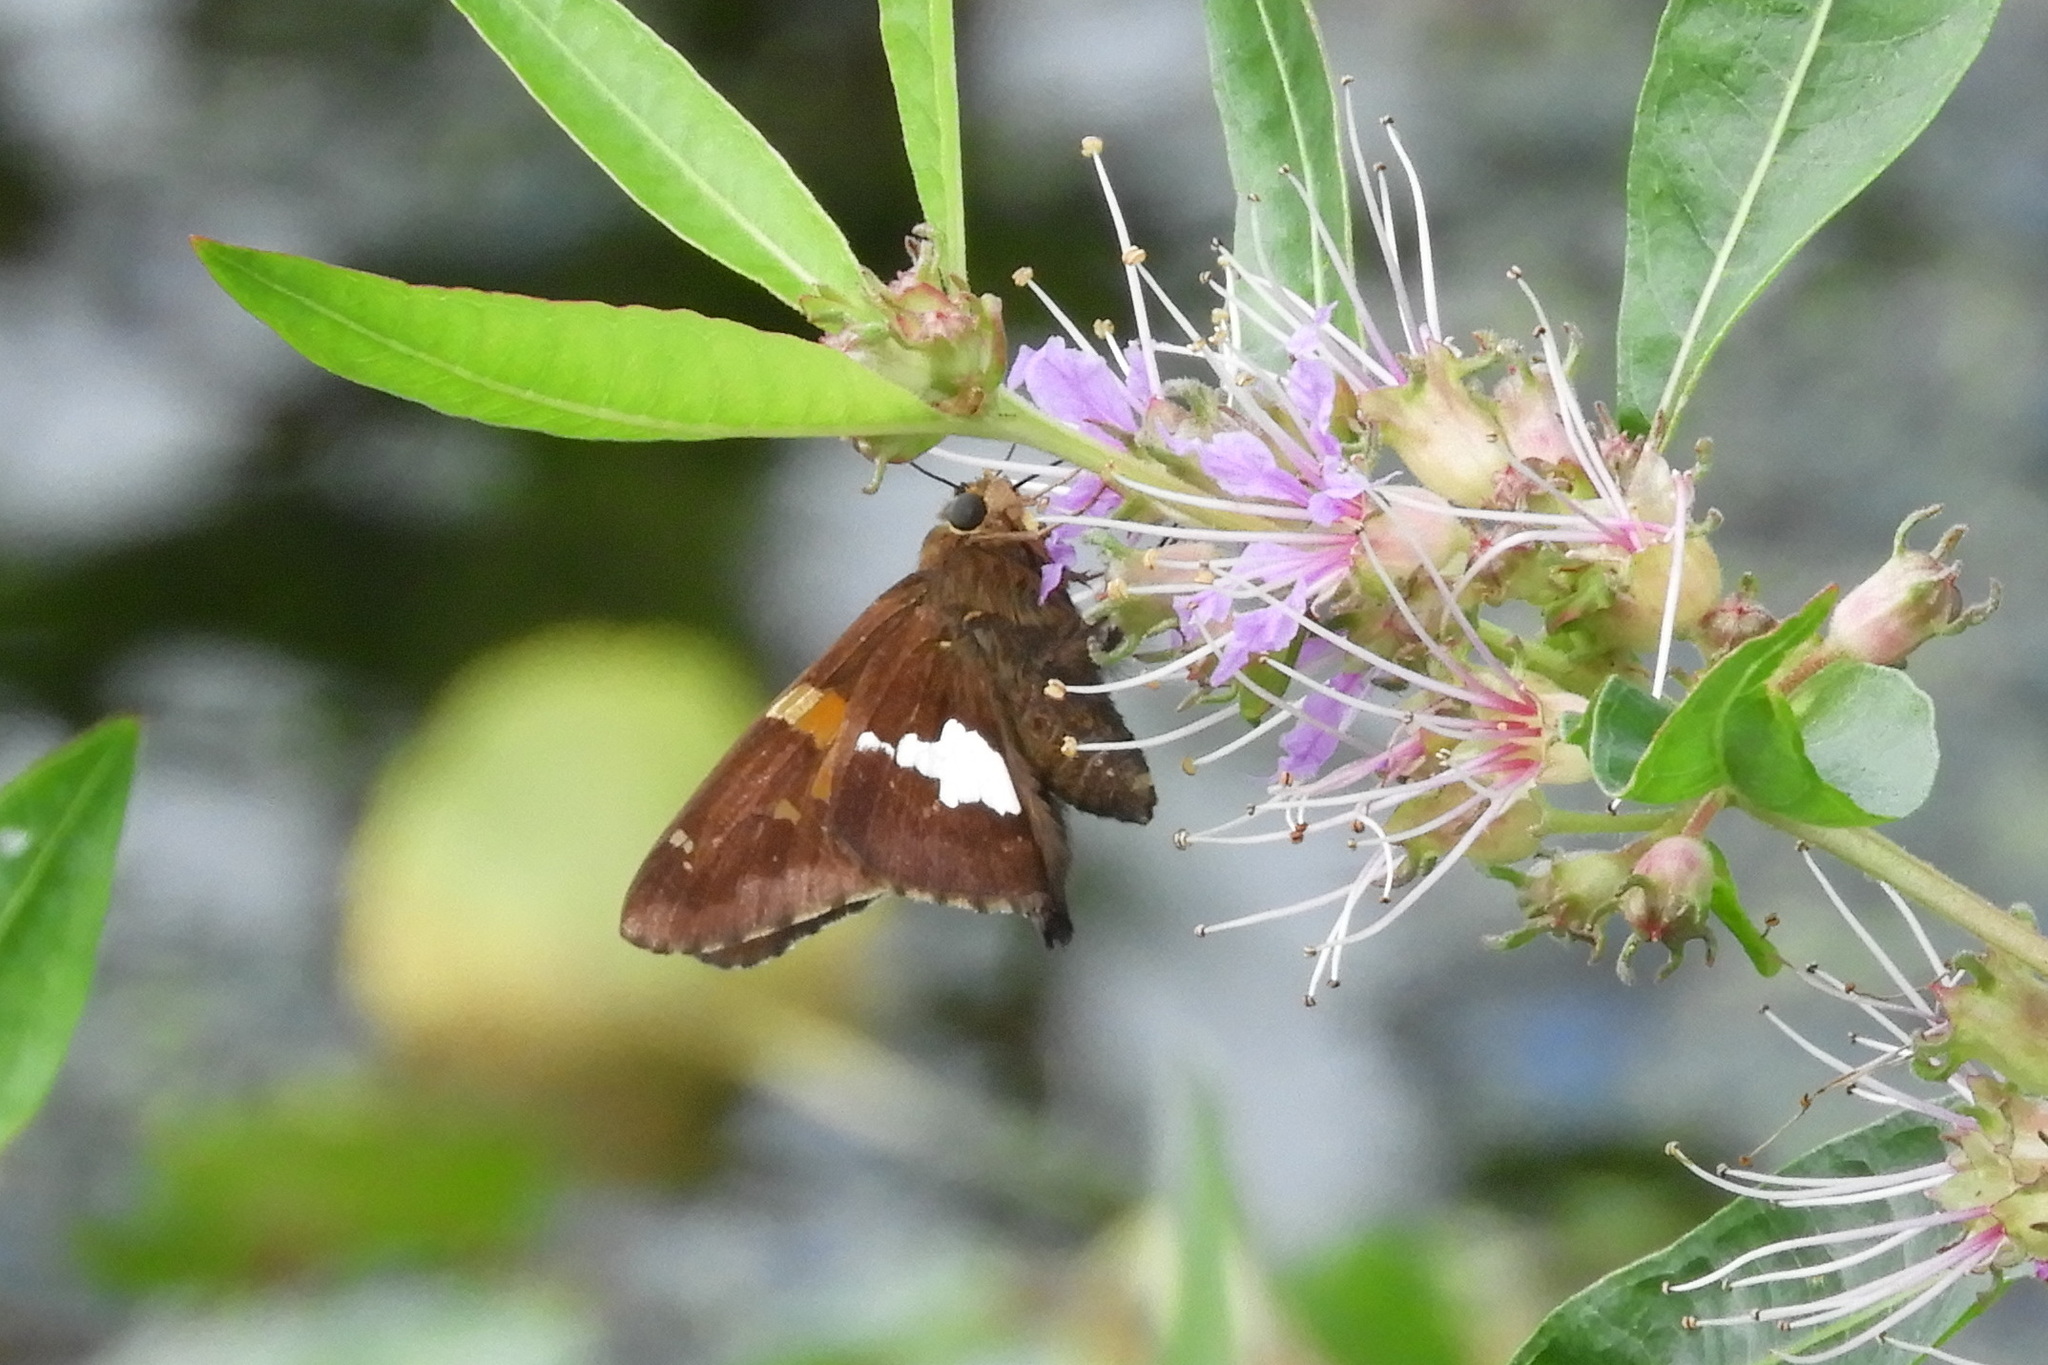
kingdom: Animalia
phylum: Arthropoda
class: Insecta
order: Lepidoptera
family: Hesperiidae
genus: Epargyreus
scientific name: Epargyreus clarus
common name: Silver-spotted skipper
